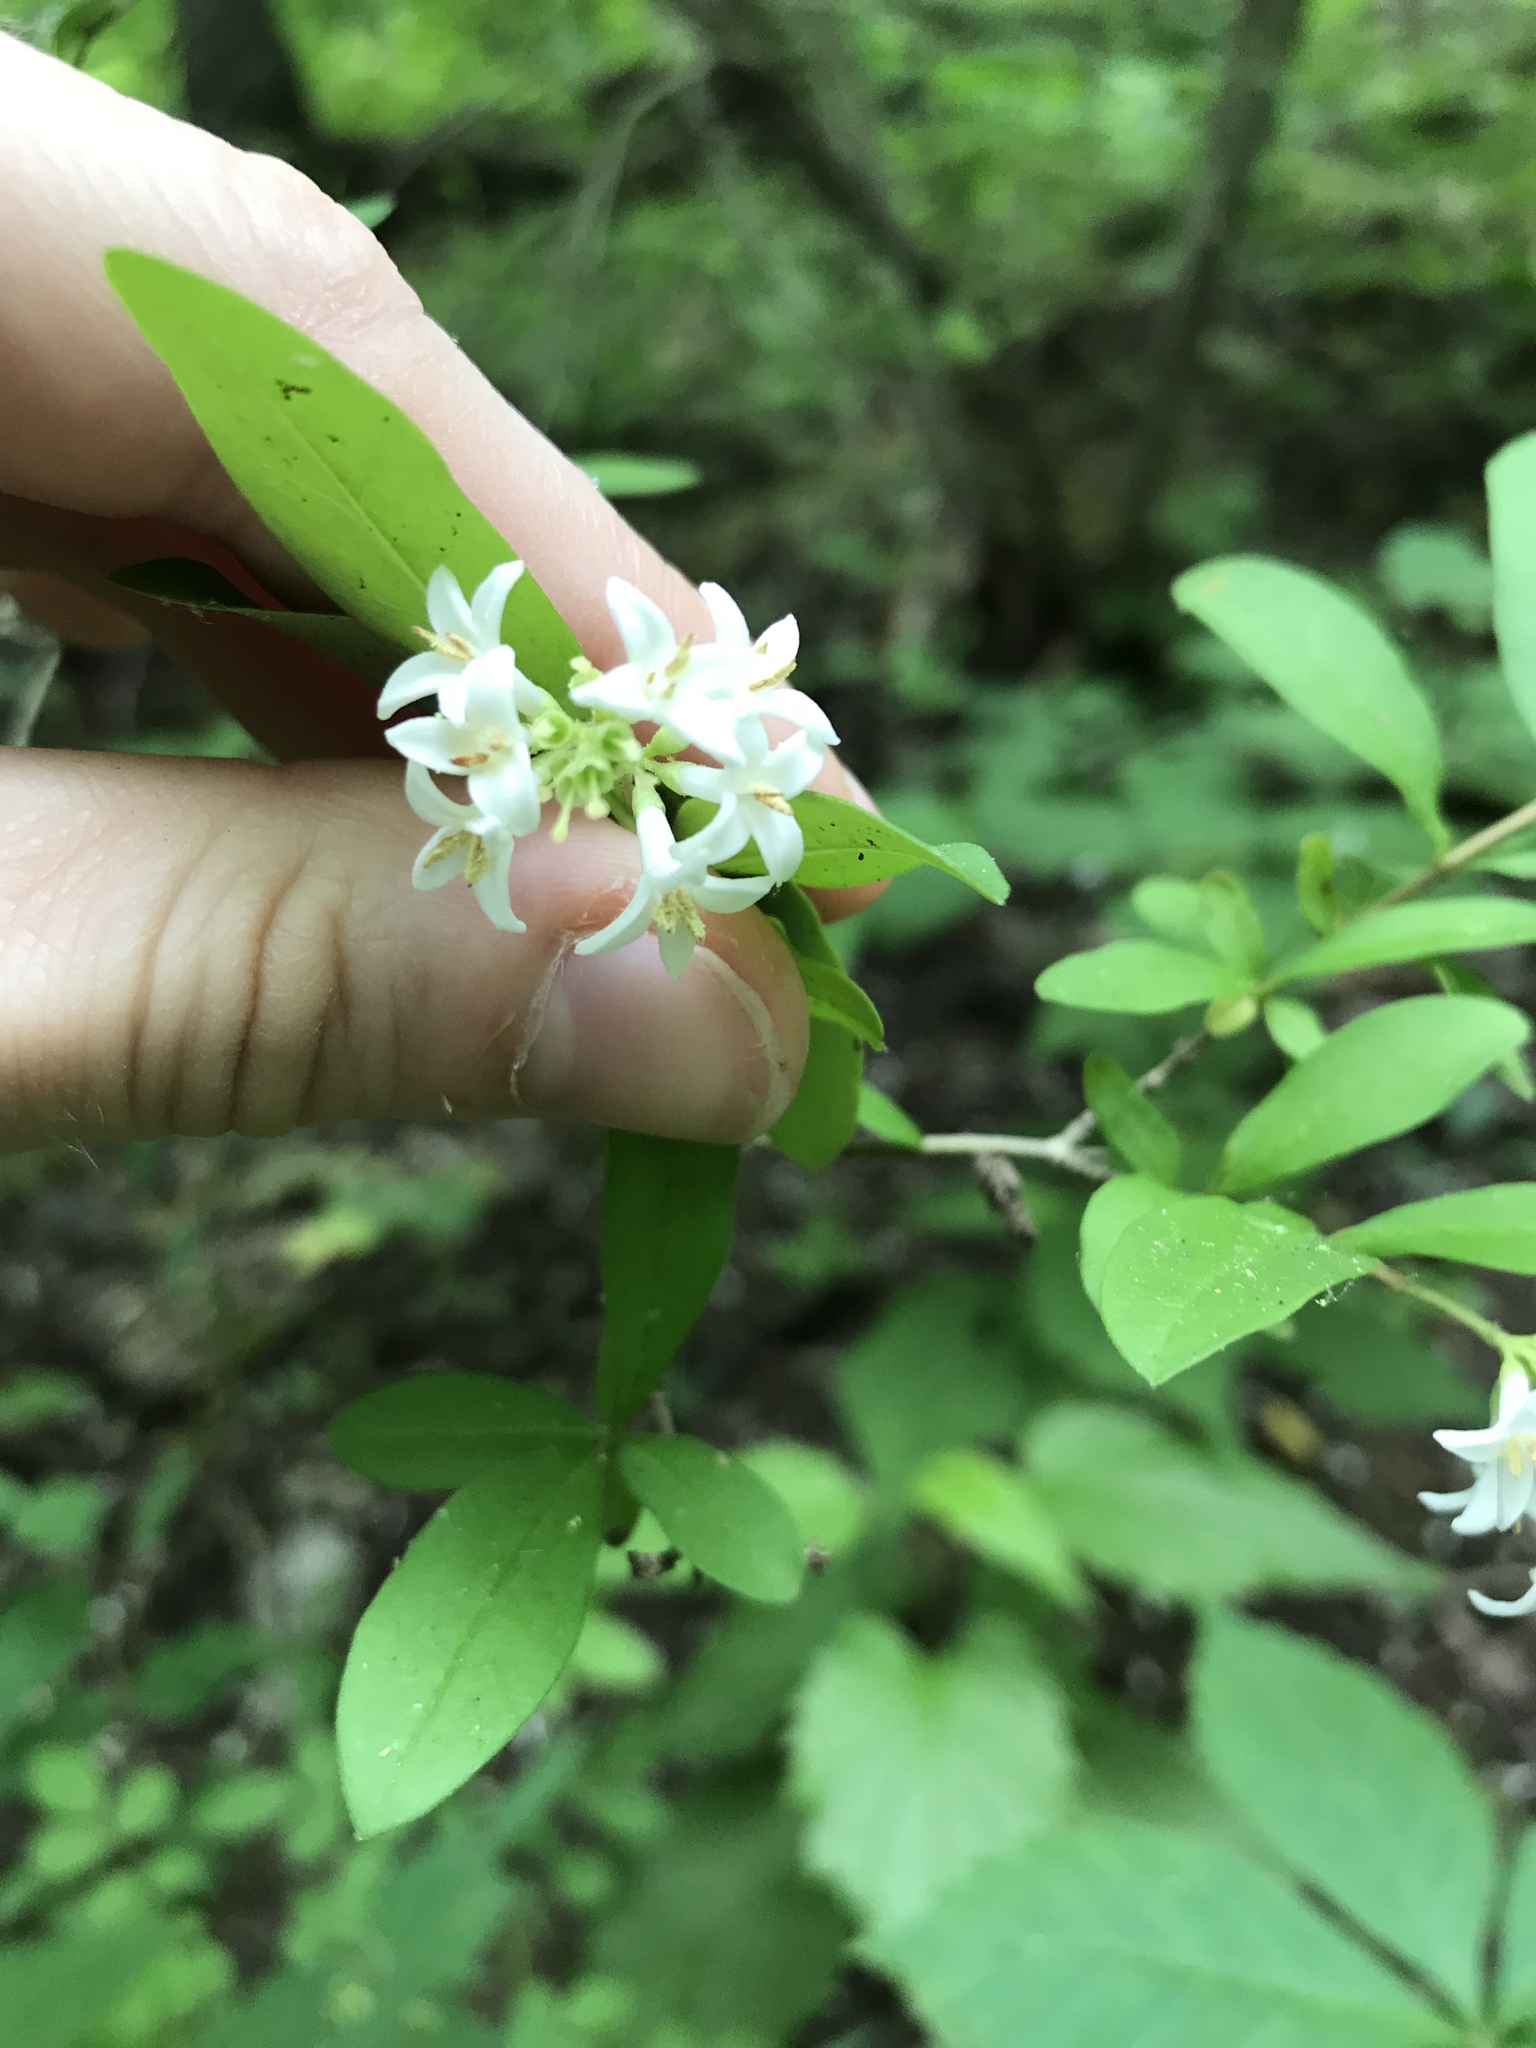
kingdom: Plantae
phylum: Tracheophyta
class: Magnoliopsida
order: Lamiales
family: Oleaceae
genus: Ligustrum
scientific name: Ligustrum obtusifolium
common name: Border privet
